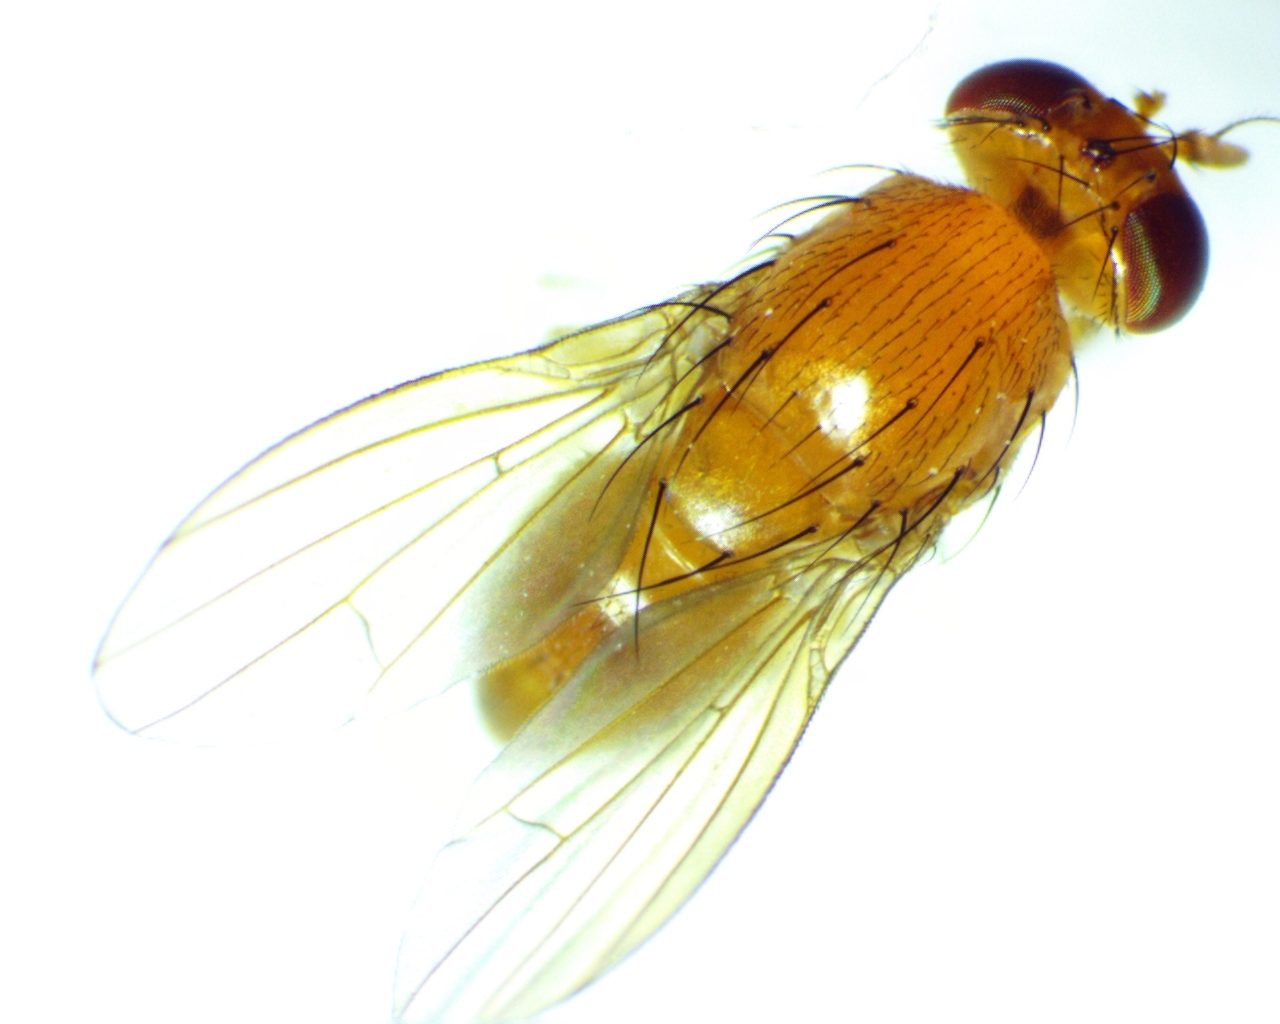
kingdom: Animalia
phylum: Arthropoda
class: Insecta
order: Diptera
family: Lauxaniidae
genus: Homoneura
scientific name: Homoneura unguiculata
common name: Beach fly
